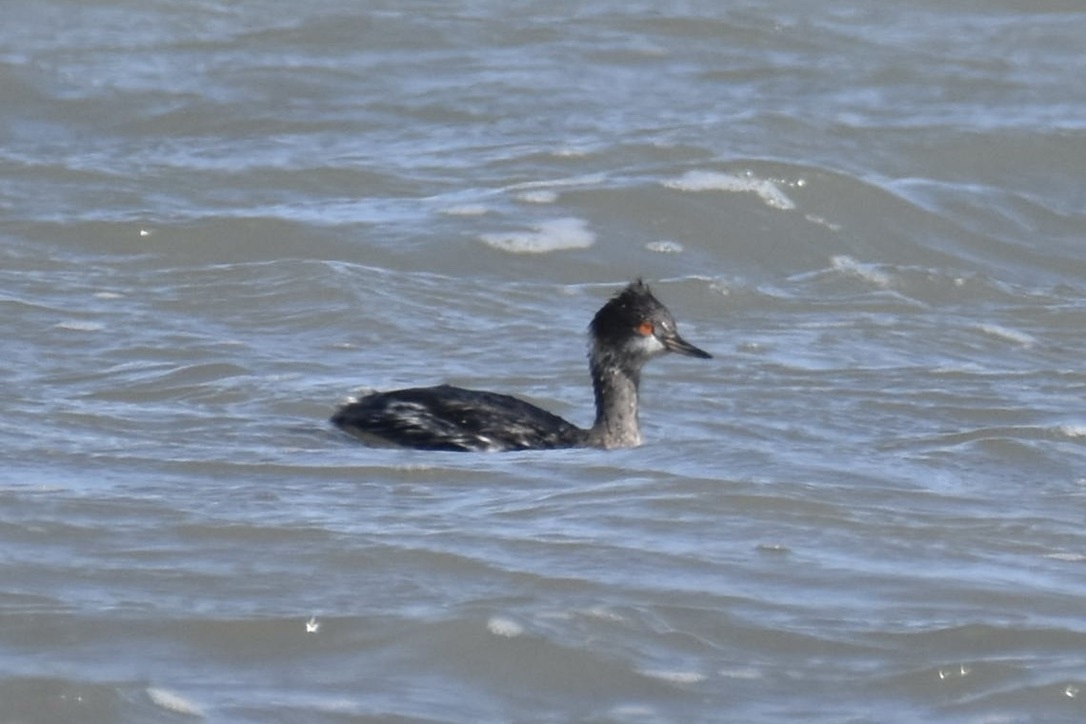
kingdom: Animalia
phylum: Chordata
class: Aves
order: Podicipediformes
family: Podicipedidae
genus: Podiceps
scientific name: Podiceps nigricollis
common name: Black-necked grebe
